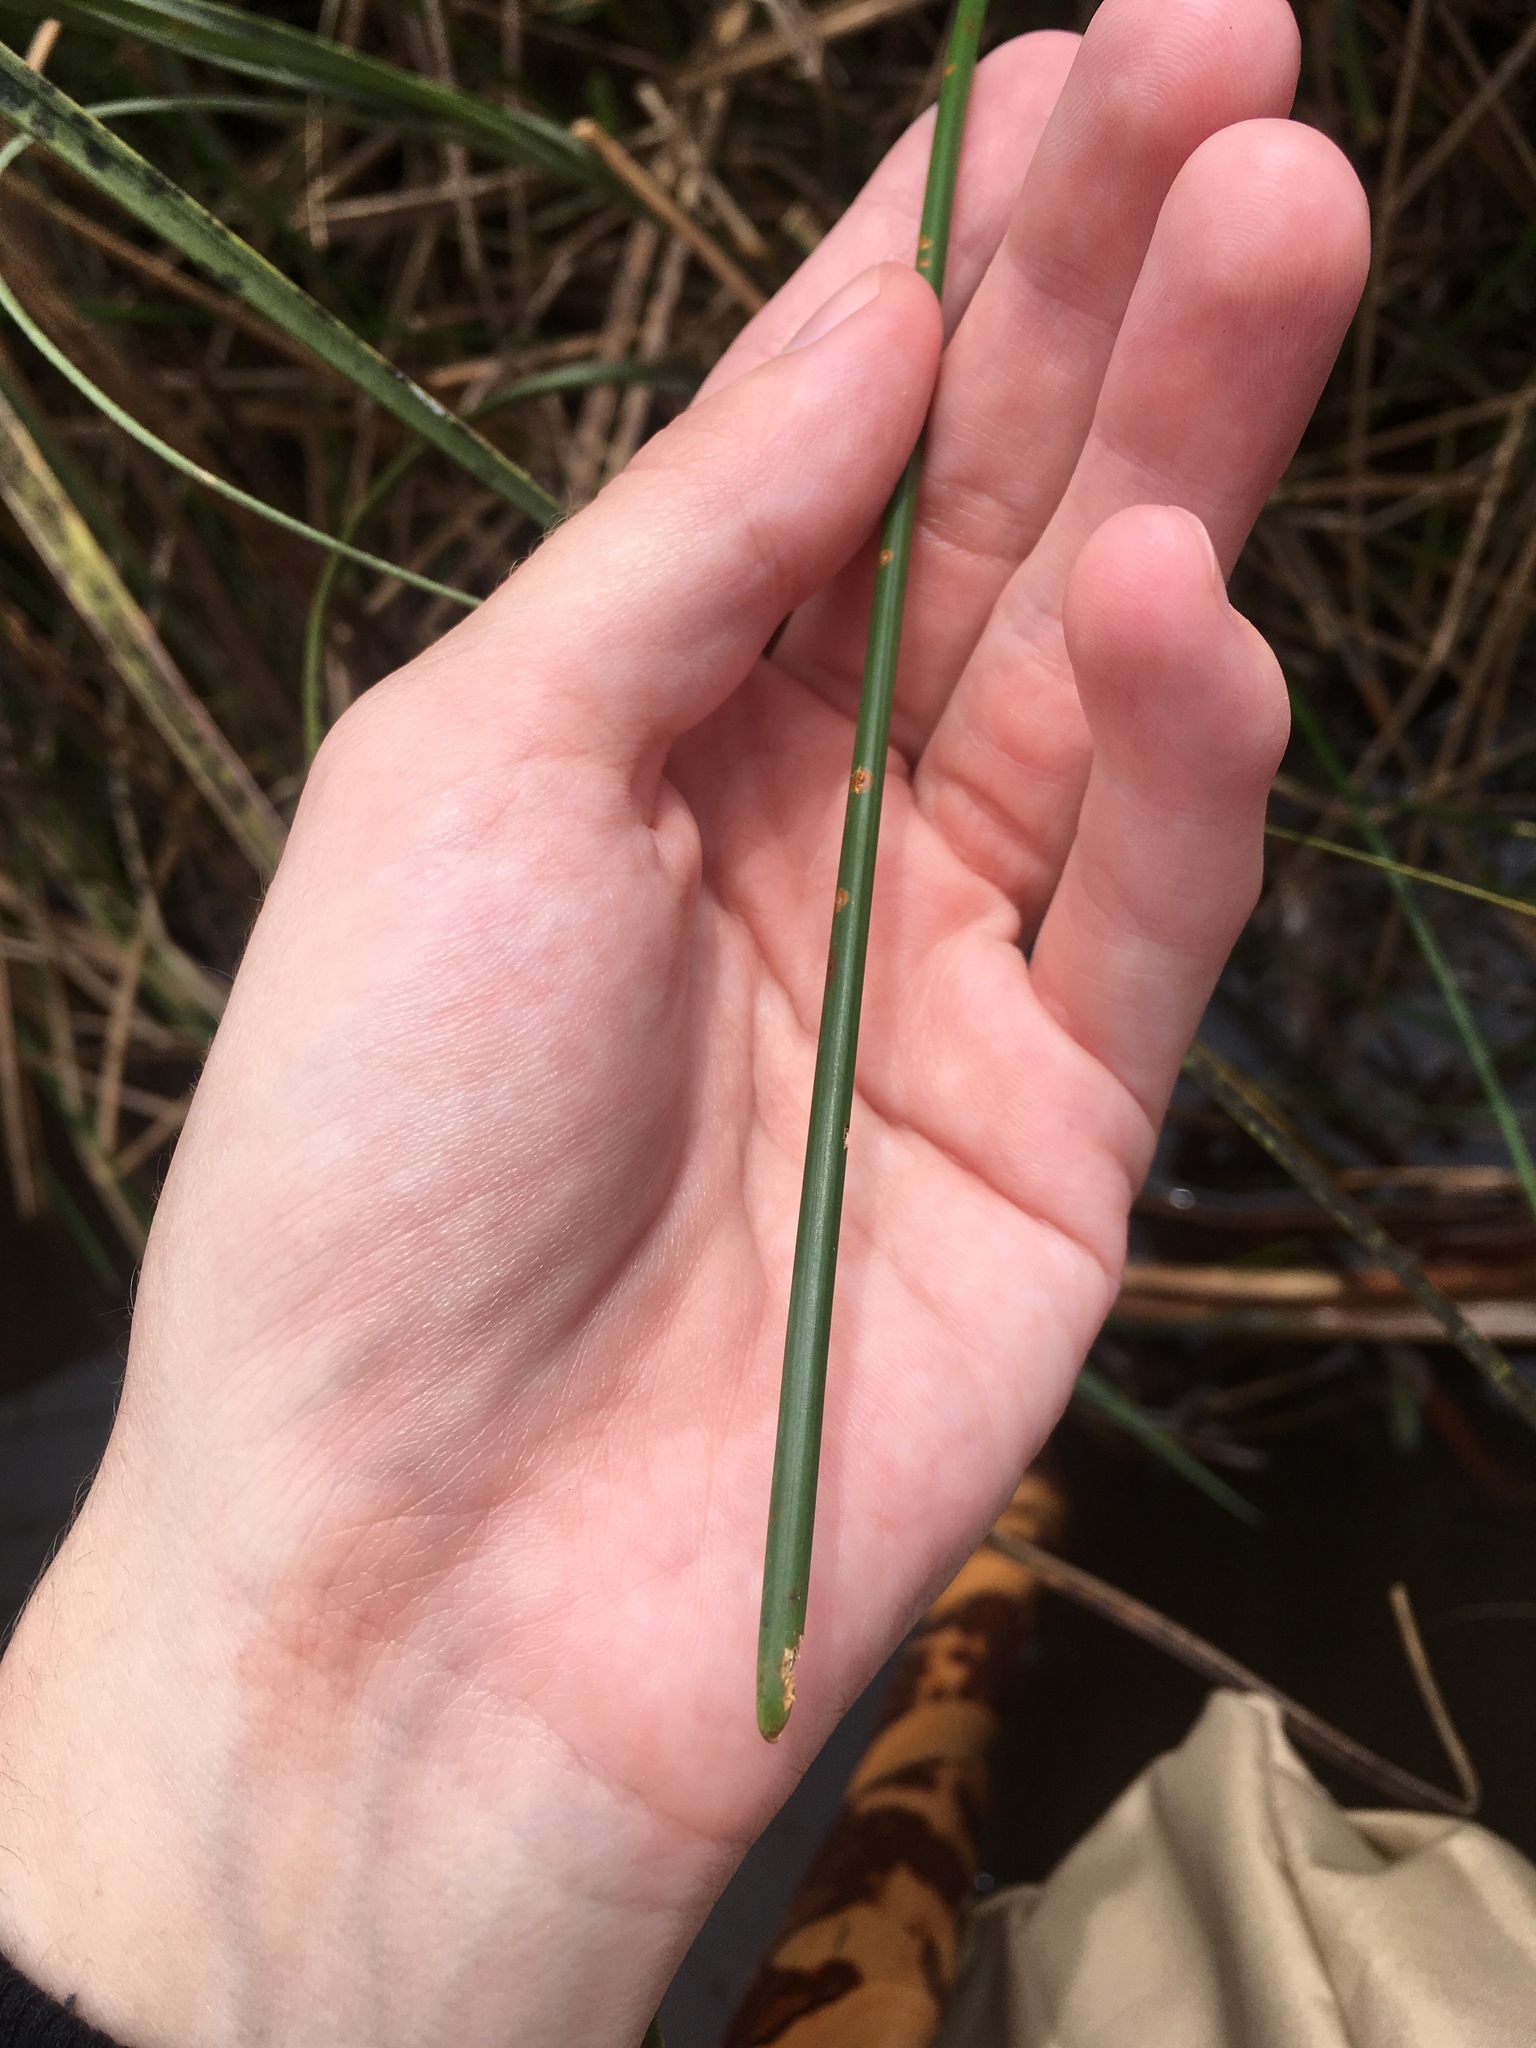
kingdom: Plantae
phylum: Tracheophyta
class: Liliopsida
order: Poales
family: Cyperaceae
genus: Eleocharis
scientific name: Eleocharis cellulosa
